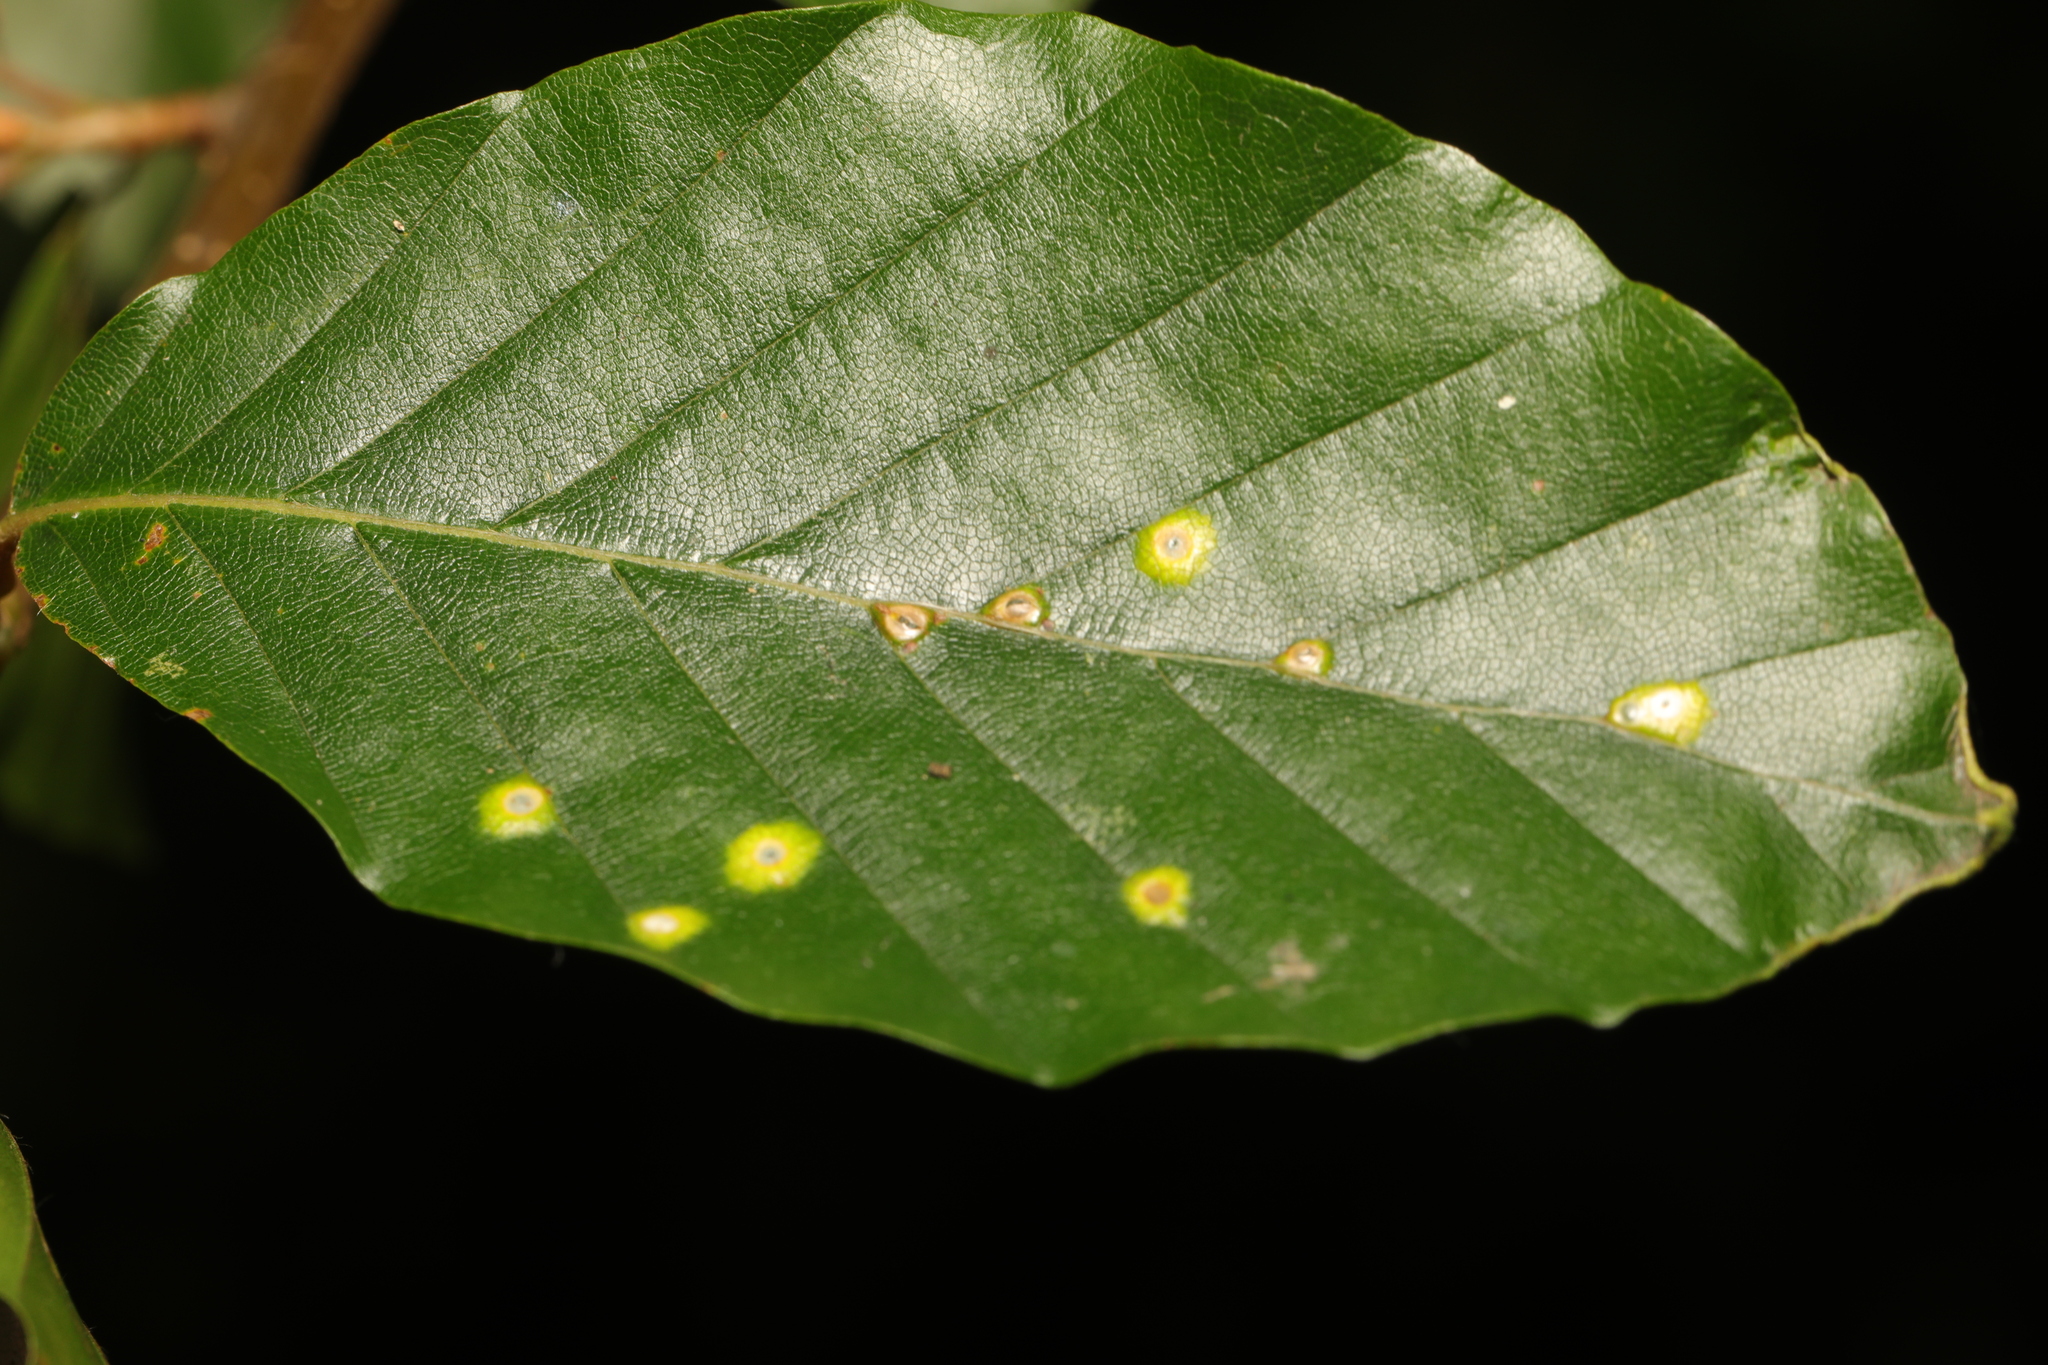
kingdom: Animalia
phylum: Arthropoda
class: Insecta
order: Diptera
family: Cecidomyiidae
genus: Hartigiola
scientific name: Hartigiola annulipes
